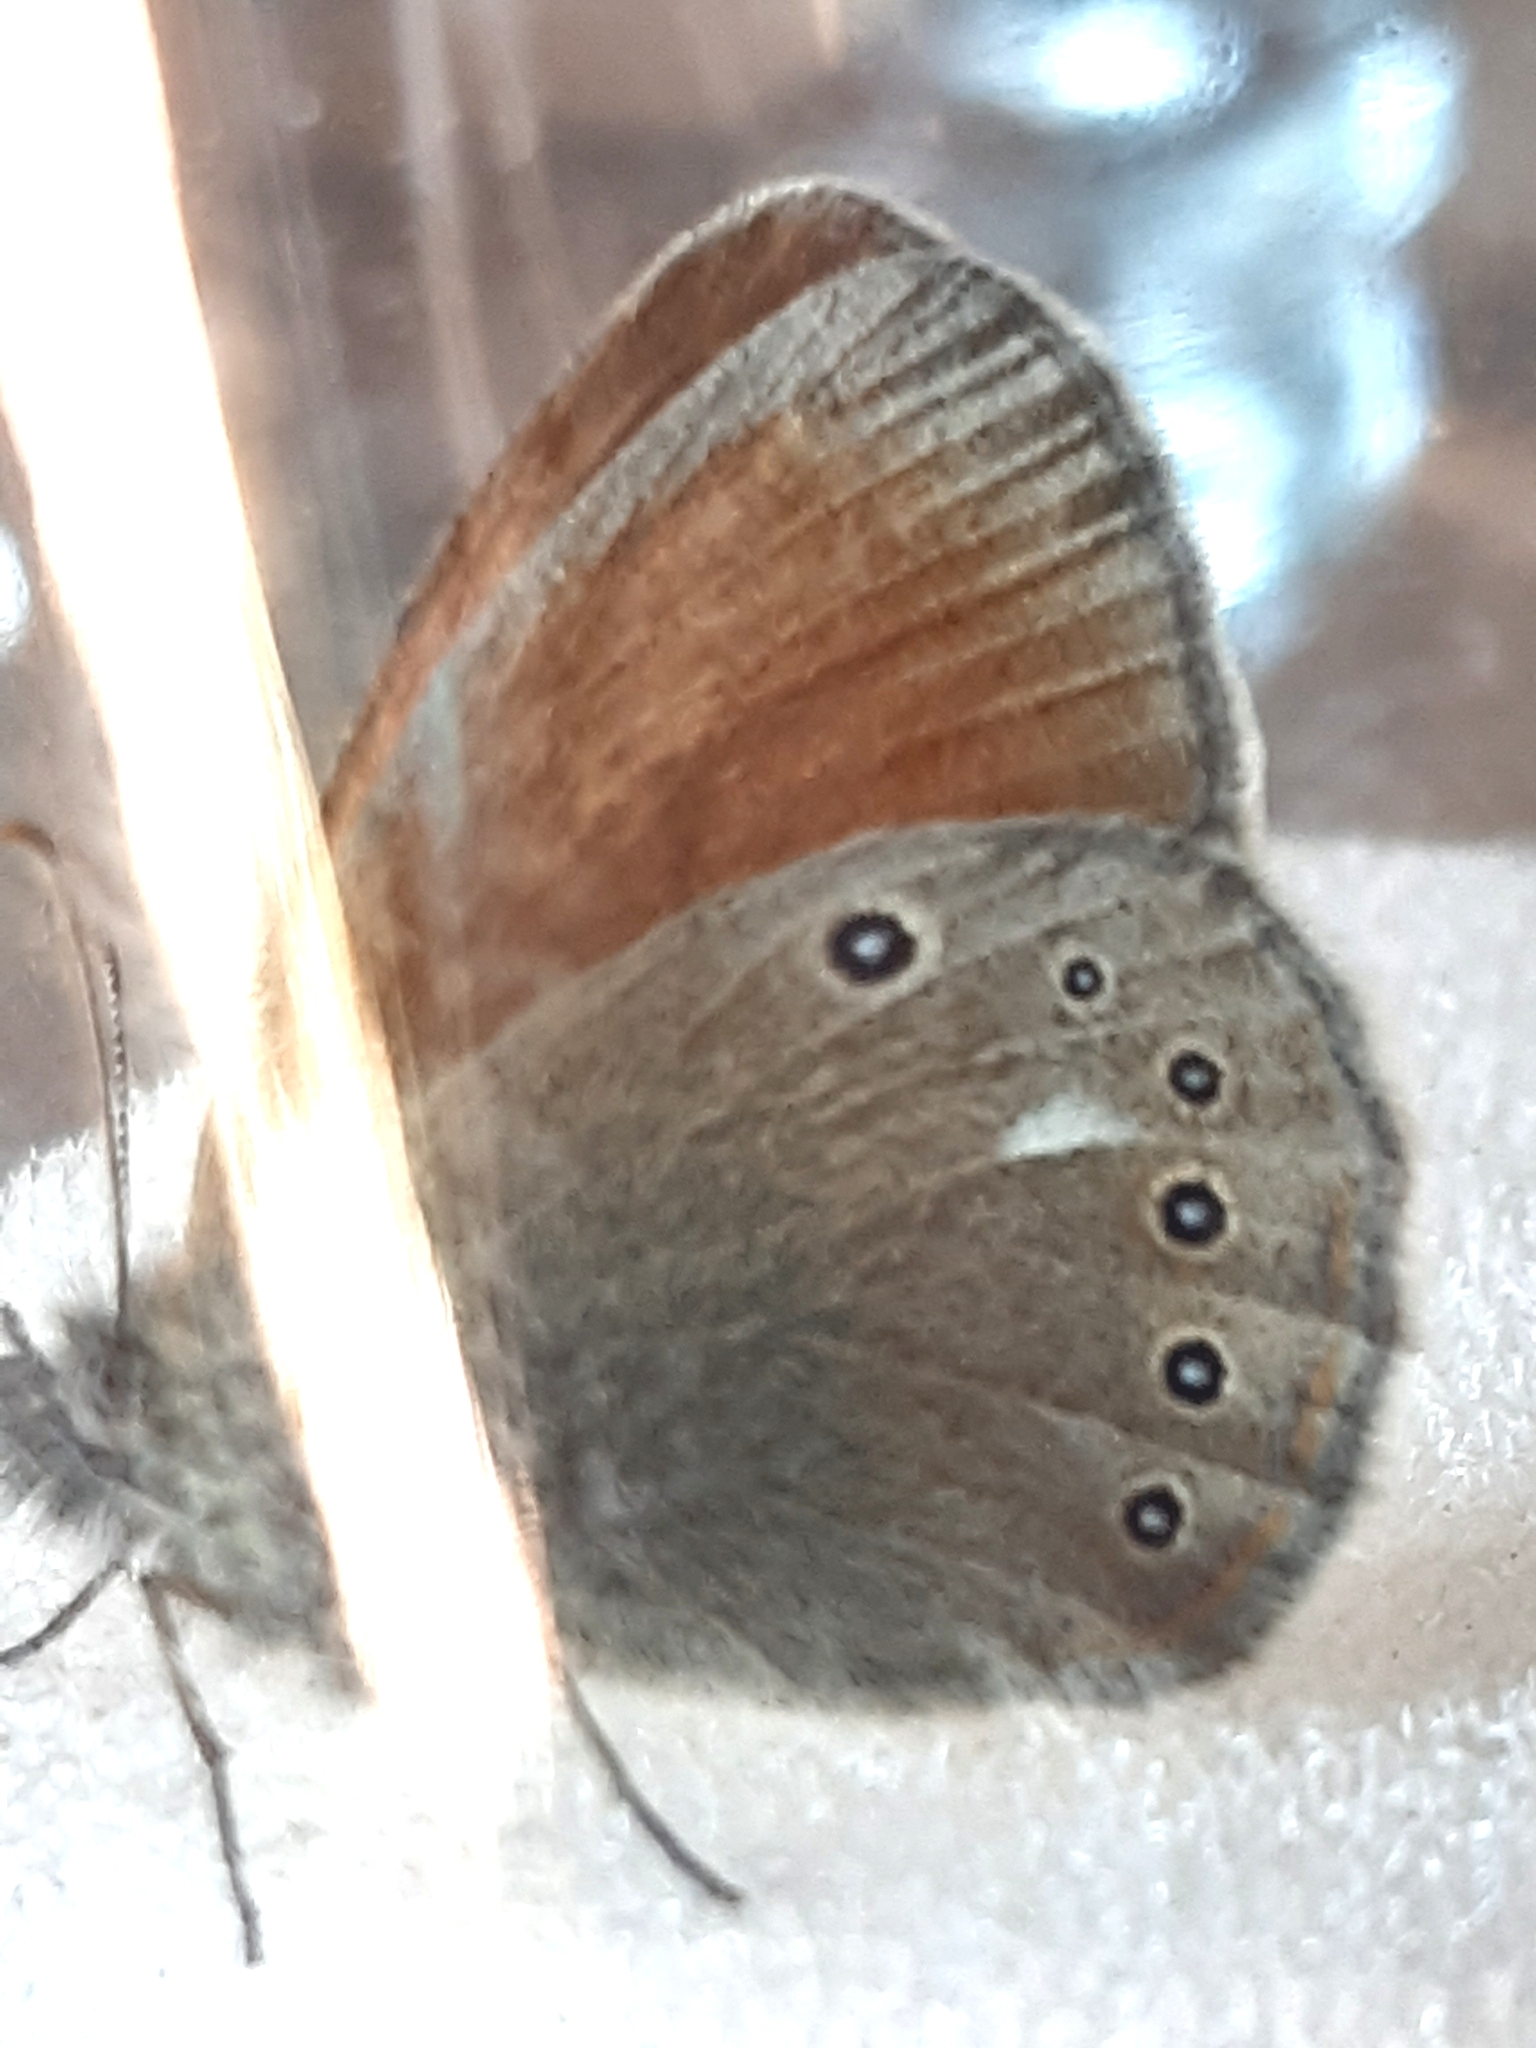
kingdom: Animalia
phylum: Arthropoda
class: Insecta
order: Lepidoptera
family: Nymphalidae
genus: Coenonympha
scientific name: Coenonympha iphis
